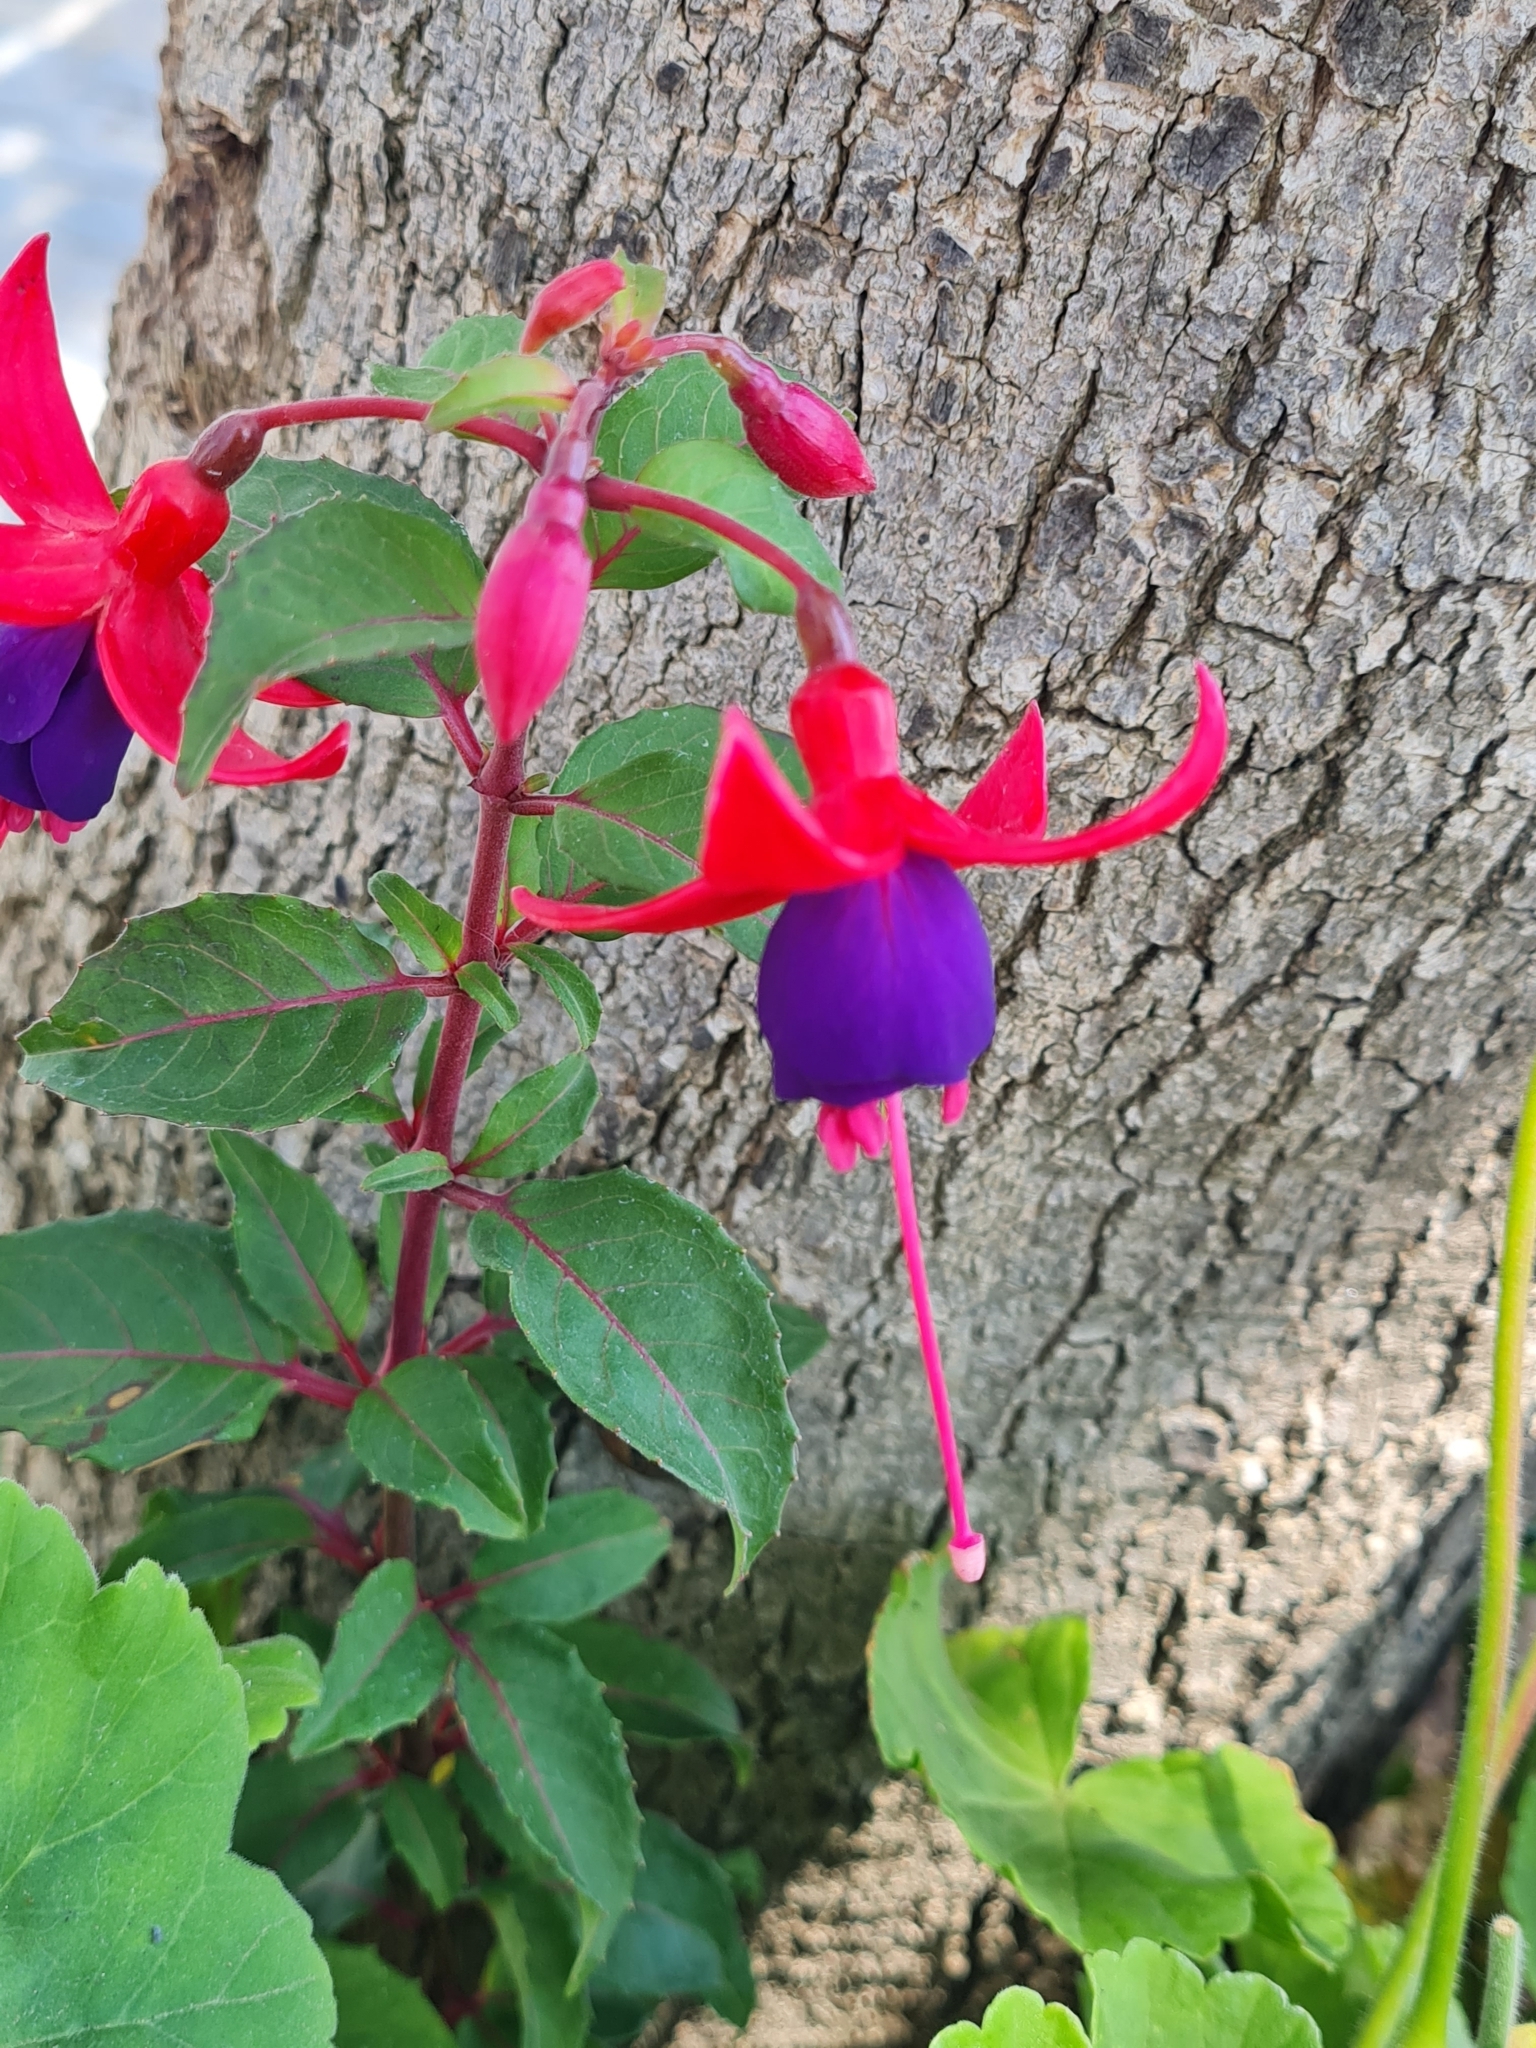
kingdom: Plantae
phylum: Tracheophyta
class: Magnoliopsida
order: Myrtales
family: Onagraceae
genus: Fuchsia
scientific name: Fuchsia magellanica
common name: Hardy fuchsia
